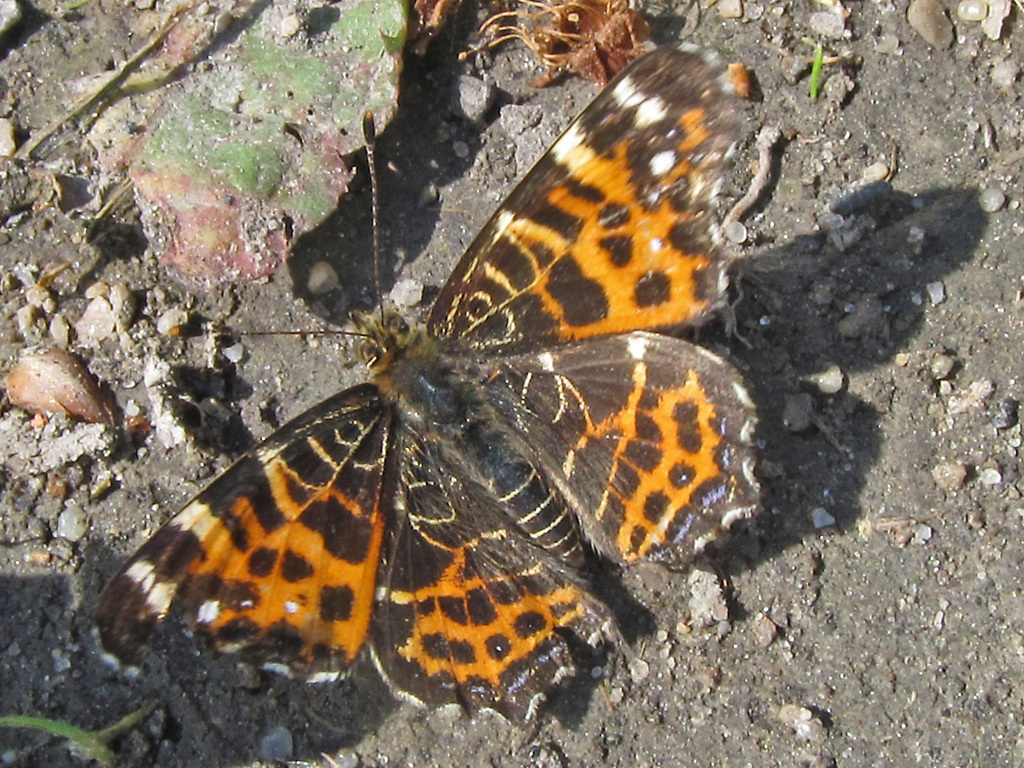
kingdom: Animalia
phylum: Arthropoda
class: Insecta
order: Lepidoptera
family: Nymphalidae
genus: Araschnia
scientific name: Araschnia levana
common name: Map butterfly
